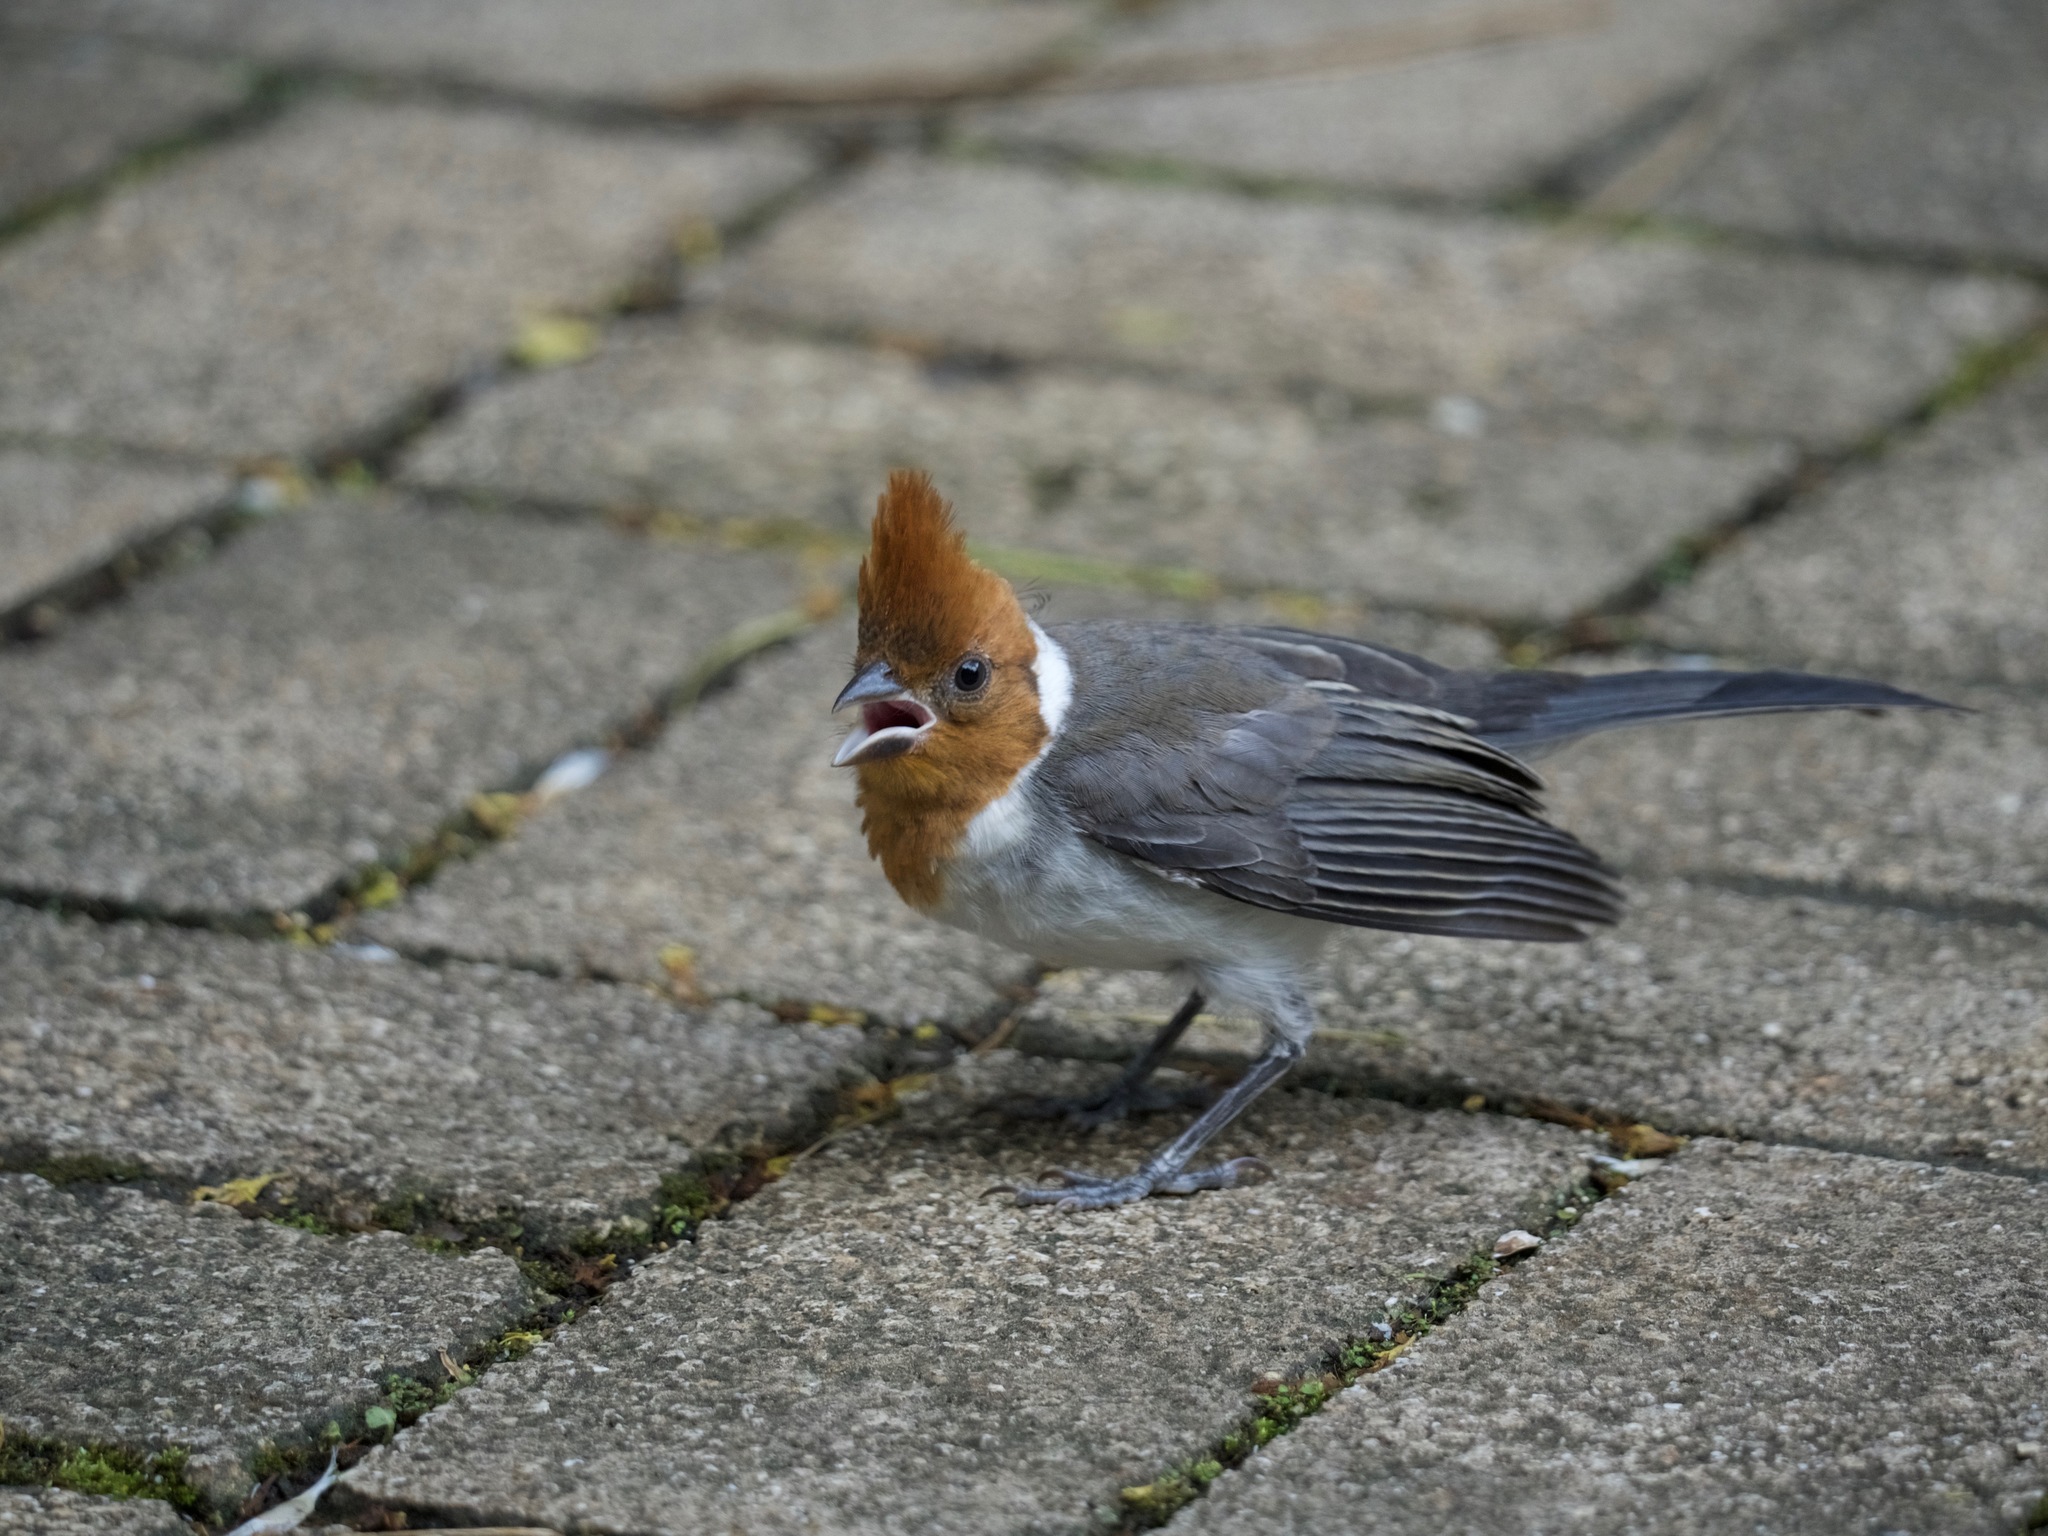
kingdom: Animalia
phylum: Chordata
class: Aves
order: Passeriformes
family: Thraupidae
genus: Paroaria
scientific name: Paroaria coronata
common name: Red-crested cardinal
